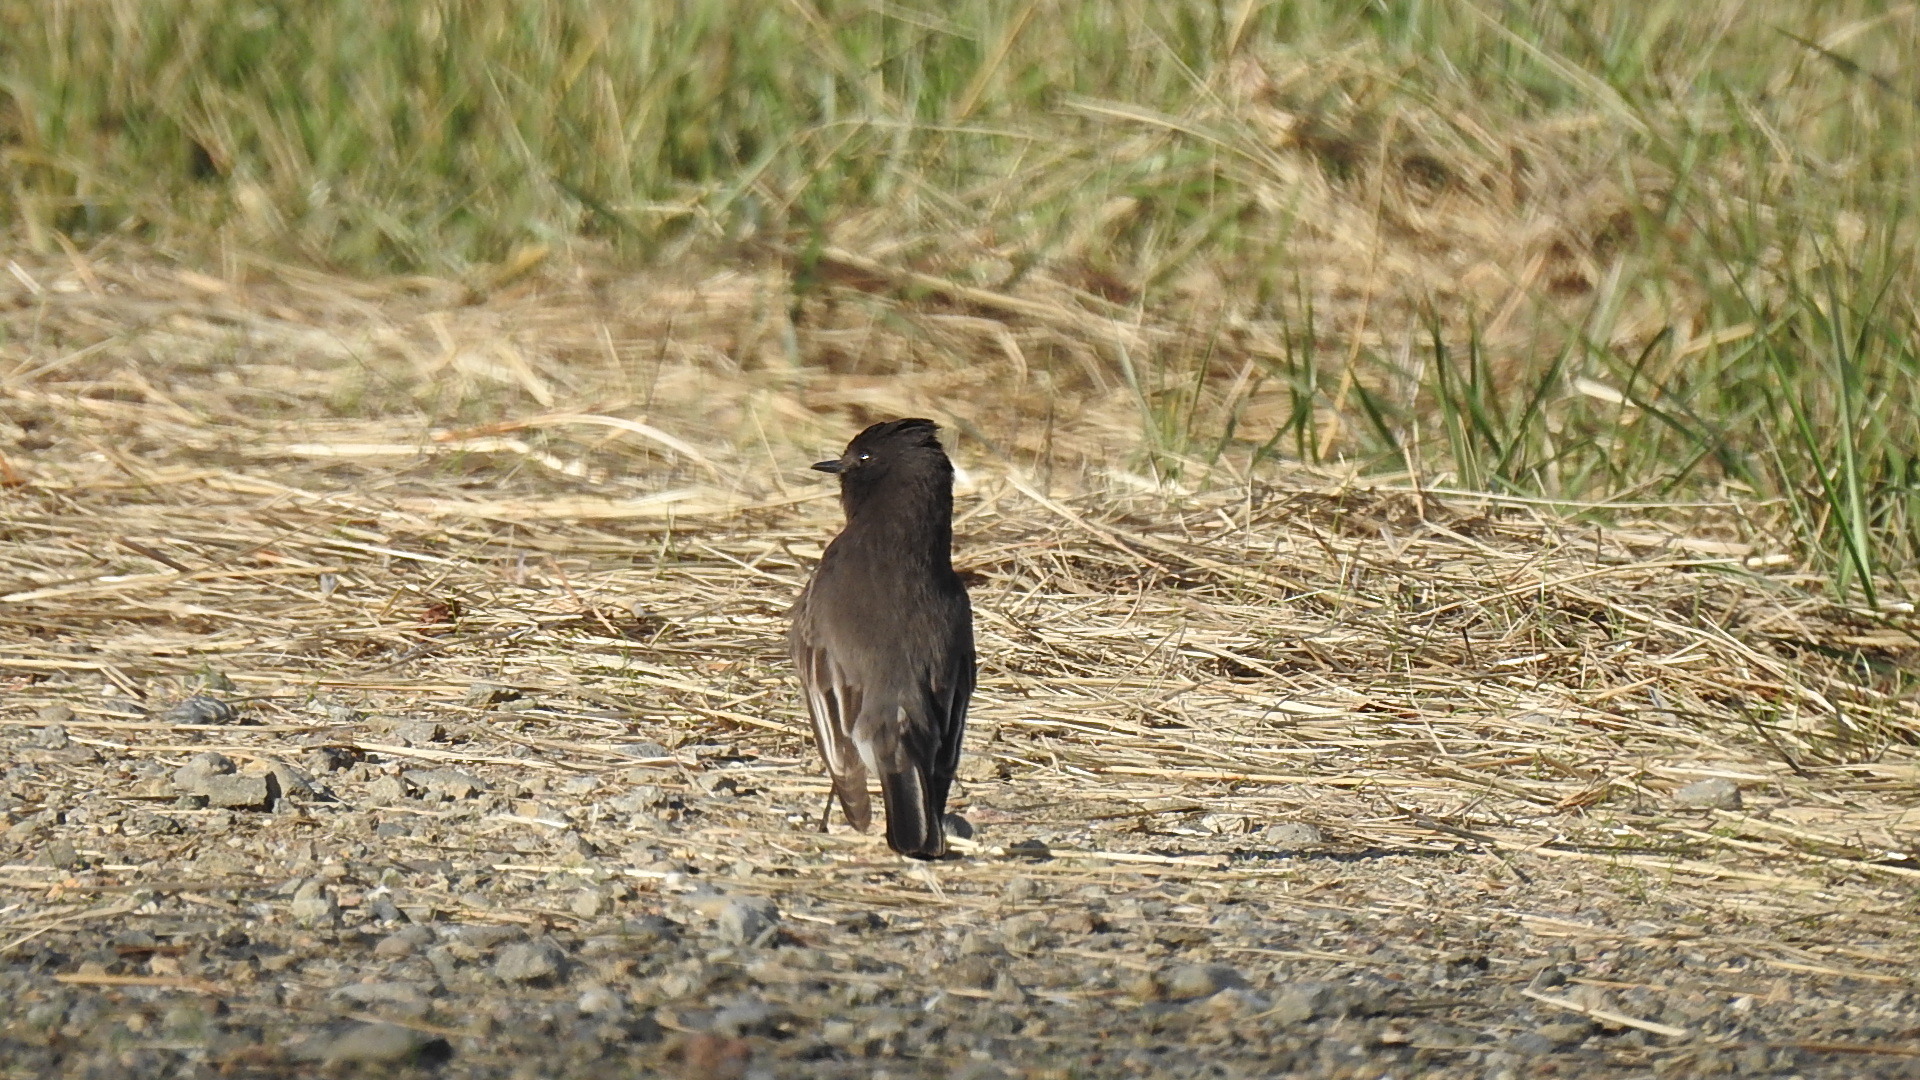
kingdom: Animalia
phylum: Chordata
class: Aves
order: Passeriformes
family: Tyrannidae
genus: Sayornis
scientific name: Sayornis nigricans
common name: Black phoebe
